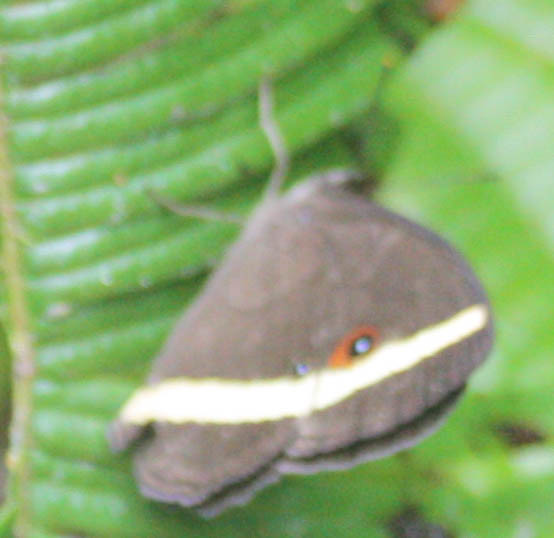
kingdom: Animalia
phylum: Arthropoda
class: Insecta
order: Lepidoptera
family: Nymphalidae
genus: Heteropsis
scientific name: Heteropsis vola
